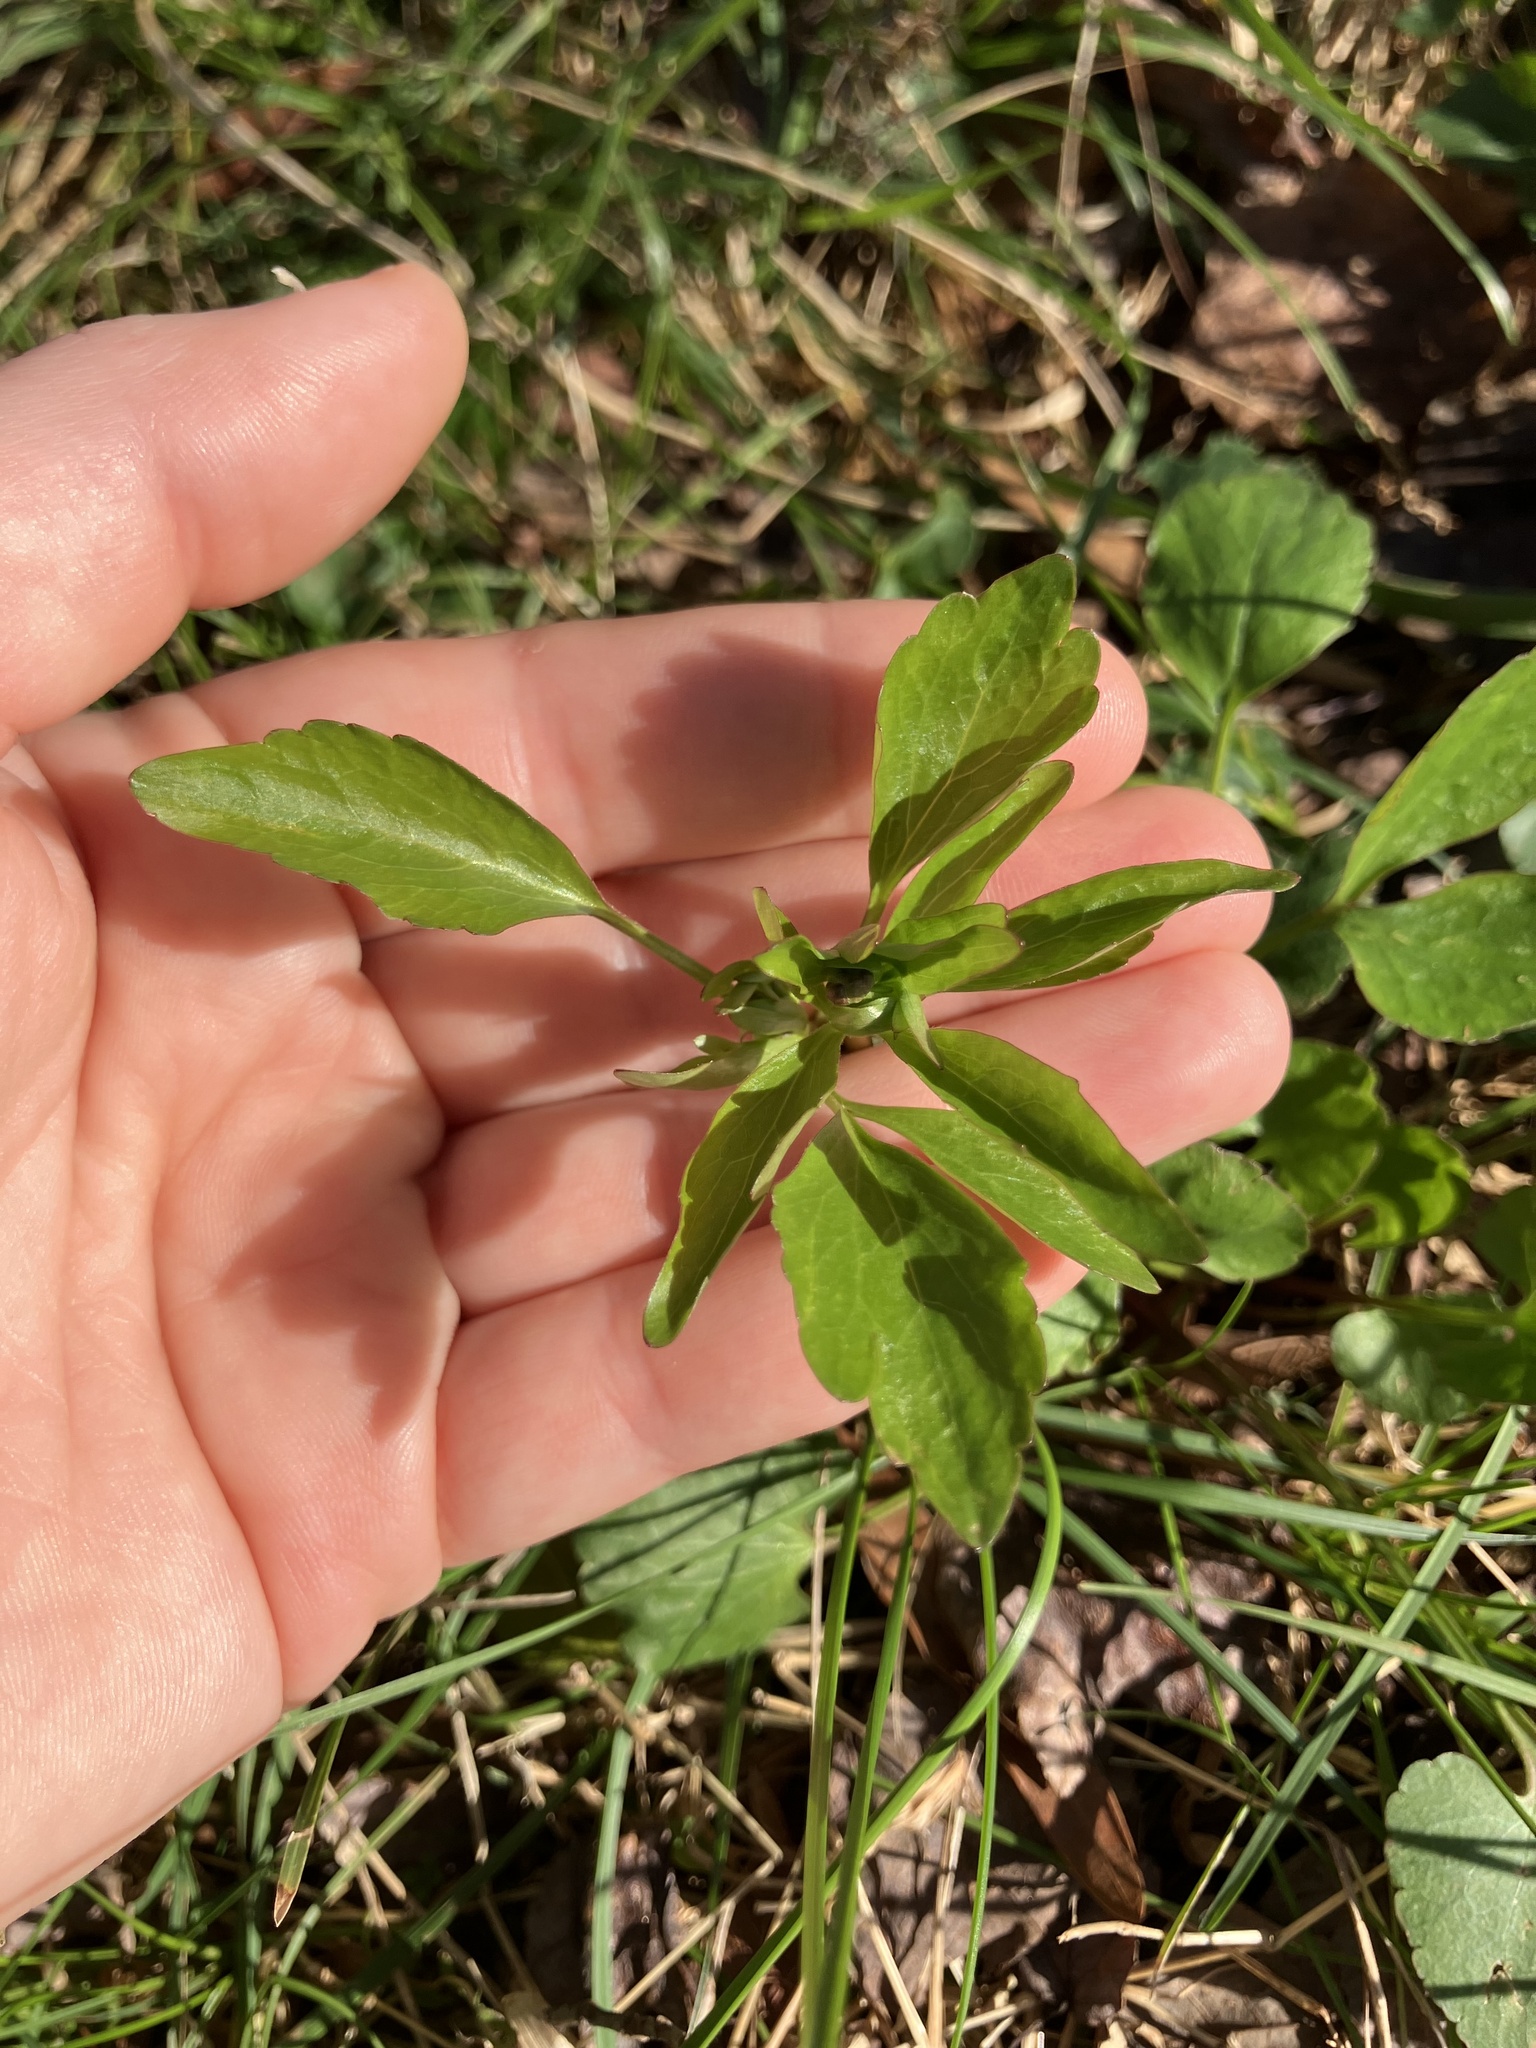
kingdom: Plantae
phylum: Tracheophyta
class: Magnoliopsida
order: Ranunculales
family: Ranunculaceae
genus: Ranunculus
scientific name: Ranunculus abortivus
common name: Early wood buttercup
